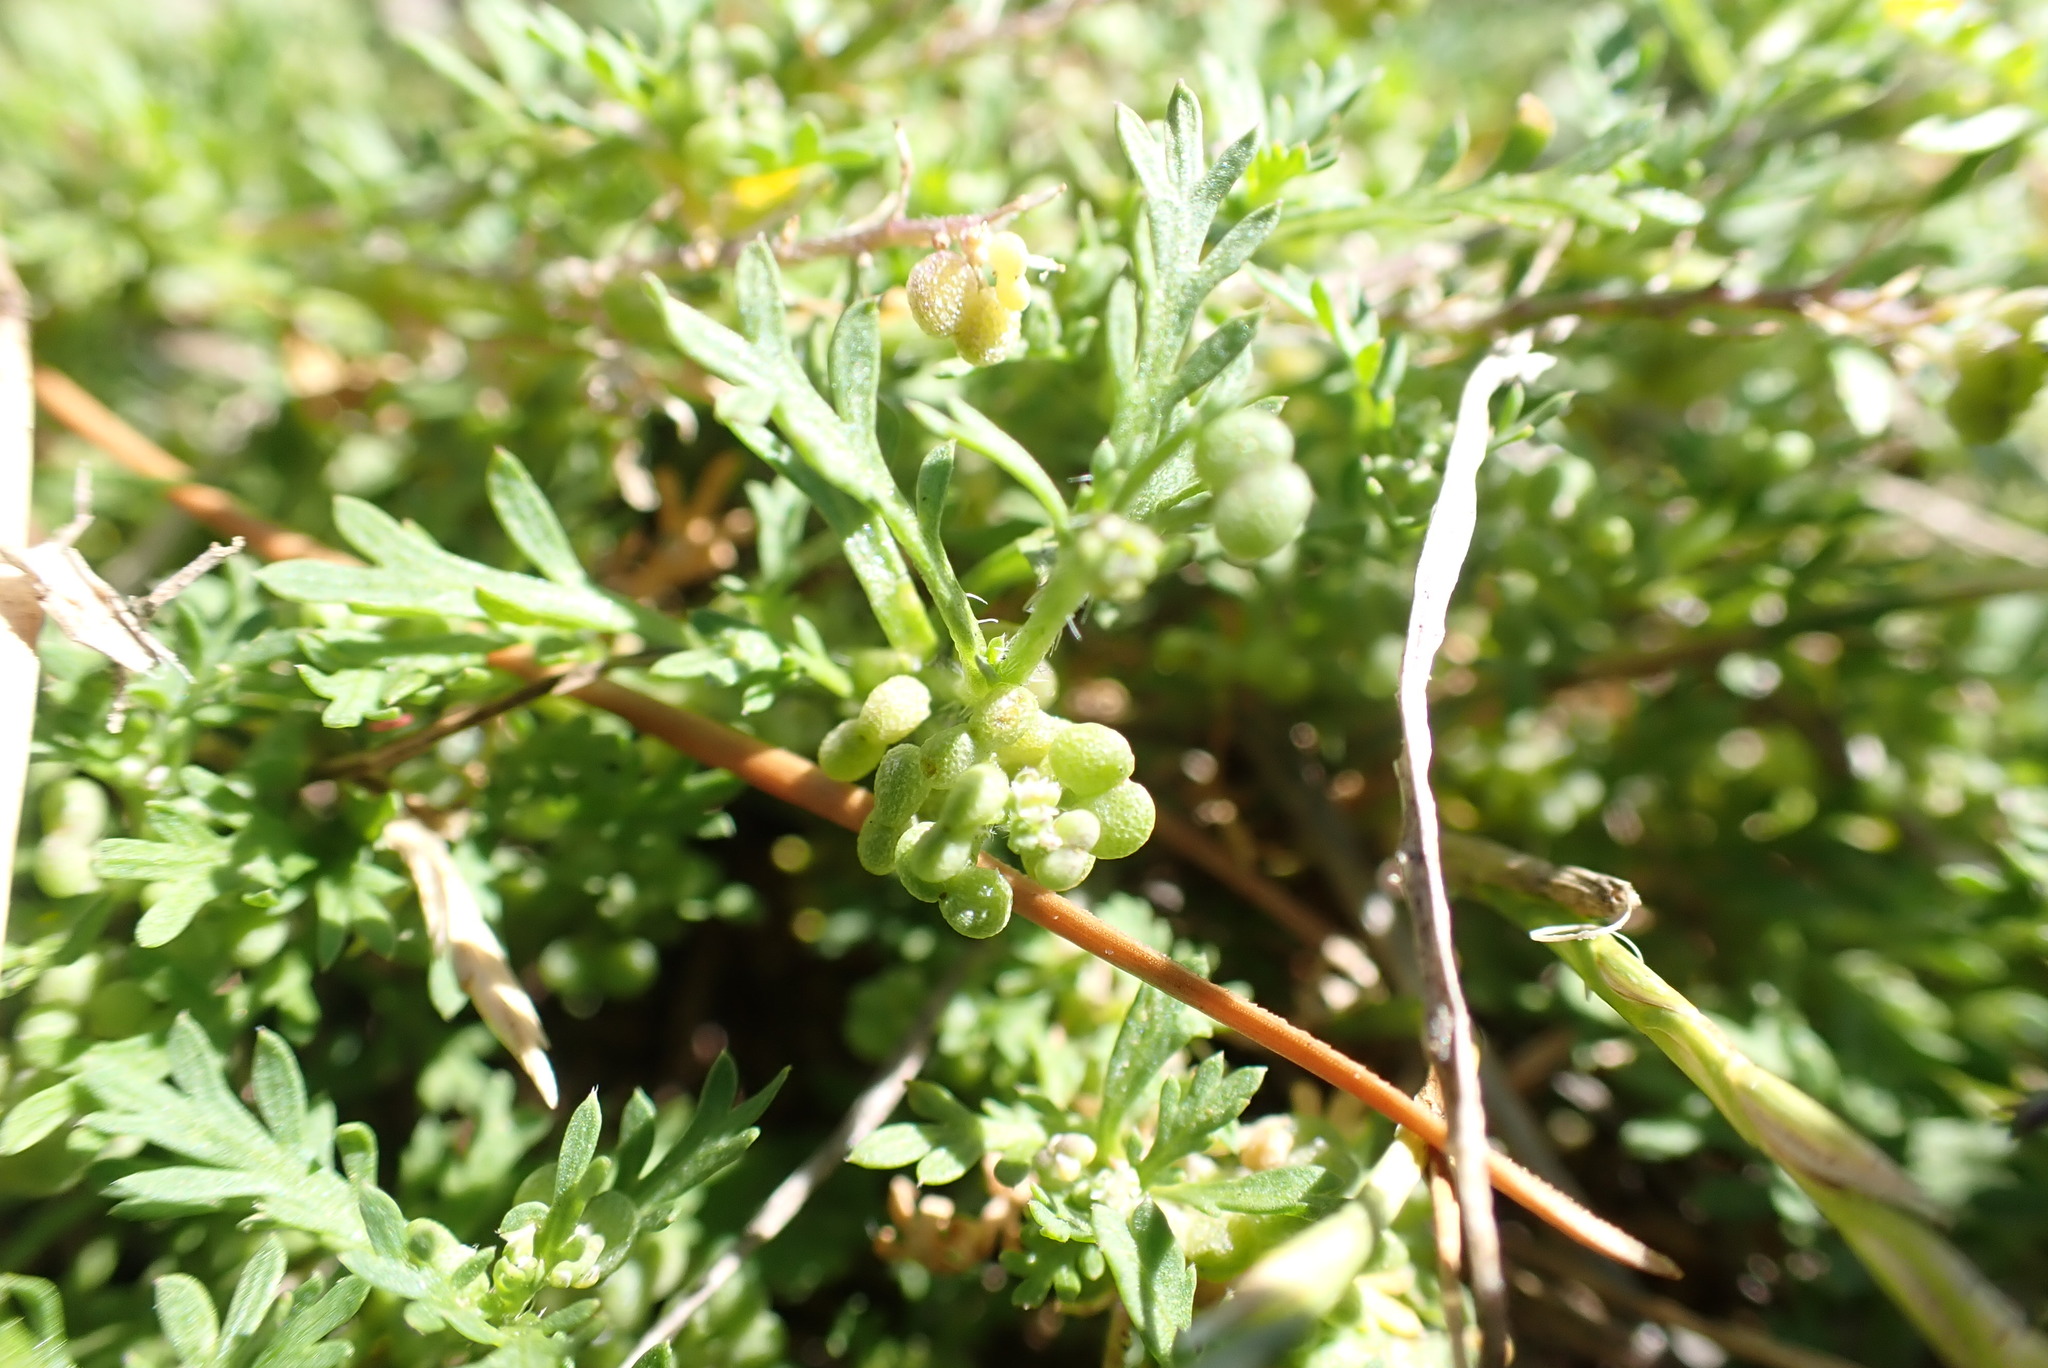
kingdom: Plantae
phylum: Tracheophyta
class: Magnoliopsida
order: Brassicales
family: Brassicaceae
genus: Lepidium
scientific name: Lepidium didymum
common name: Lesser swinecress
